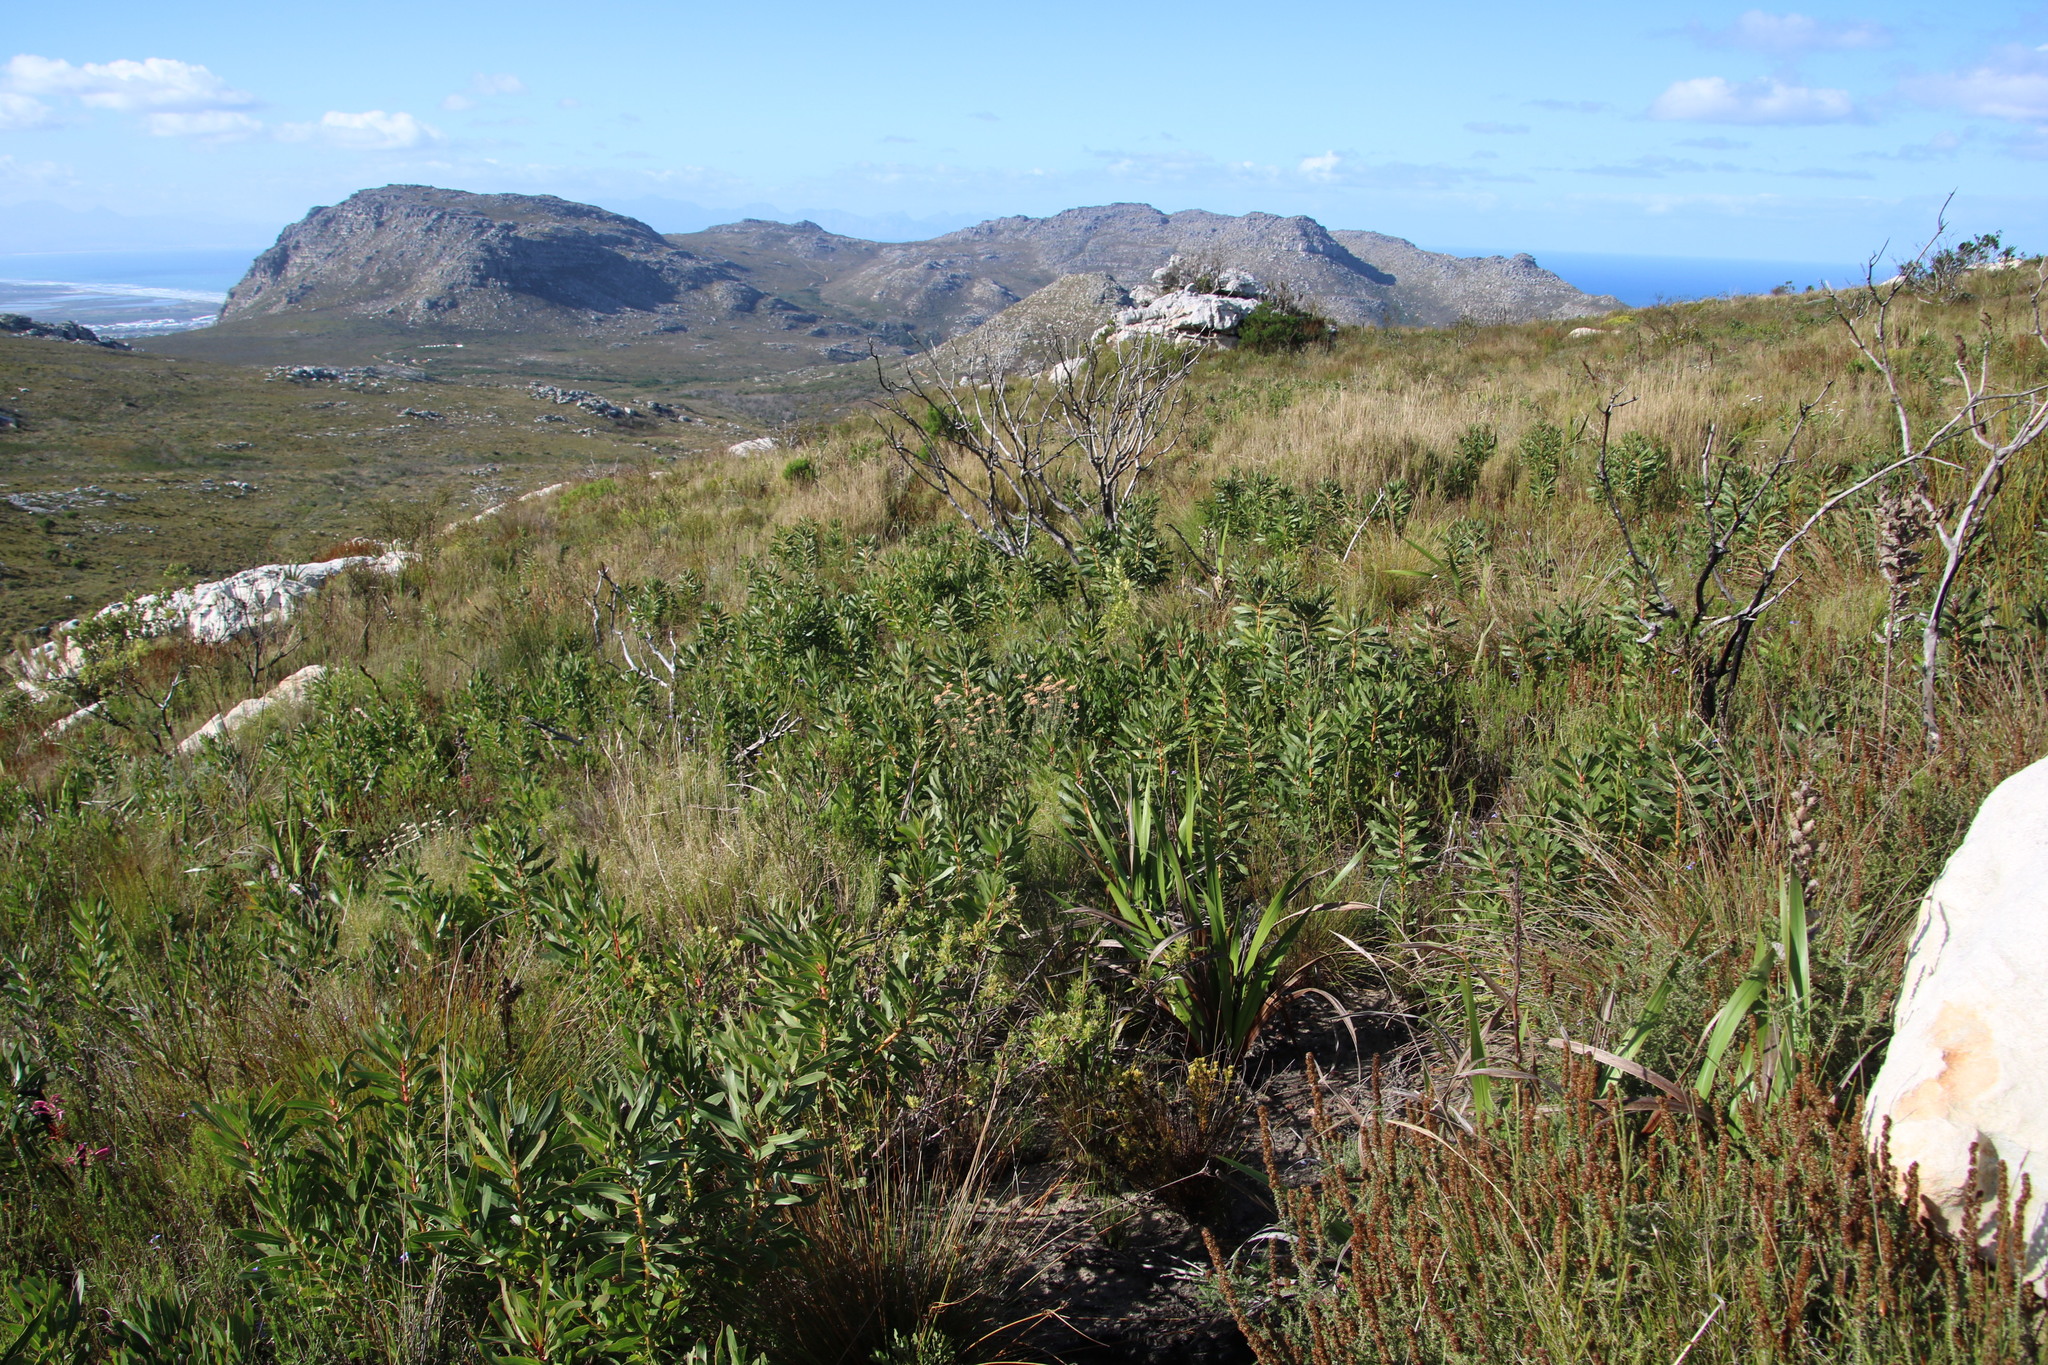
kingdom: Plantae
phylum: Tracheophyta
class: Magnoliopsida
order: Proteales
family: Proteaceae
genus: Protea
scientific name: Protea lepidocarpodendron
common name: Black-bearded protea
